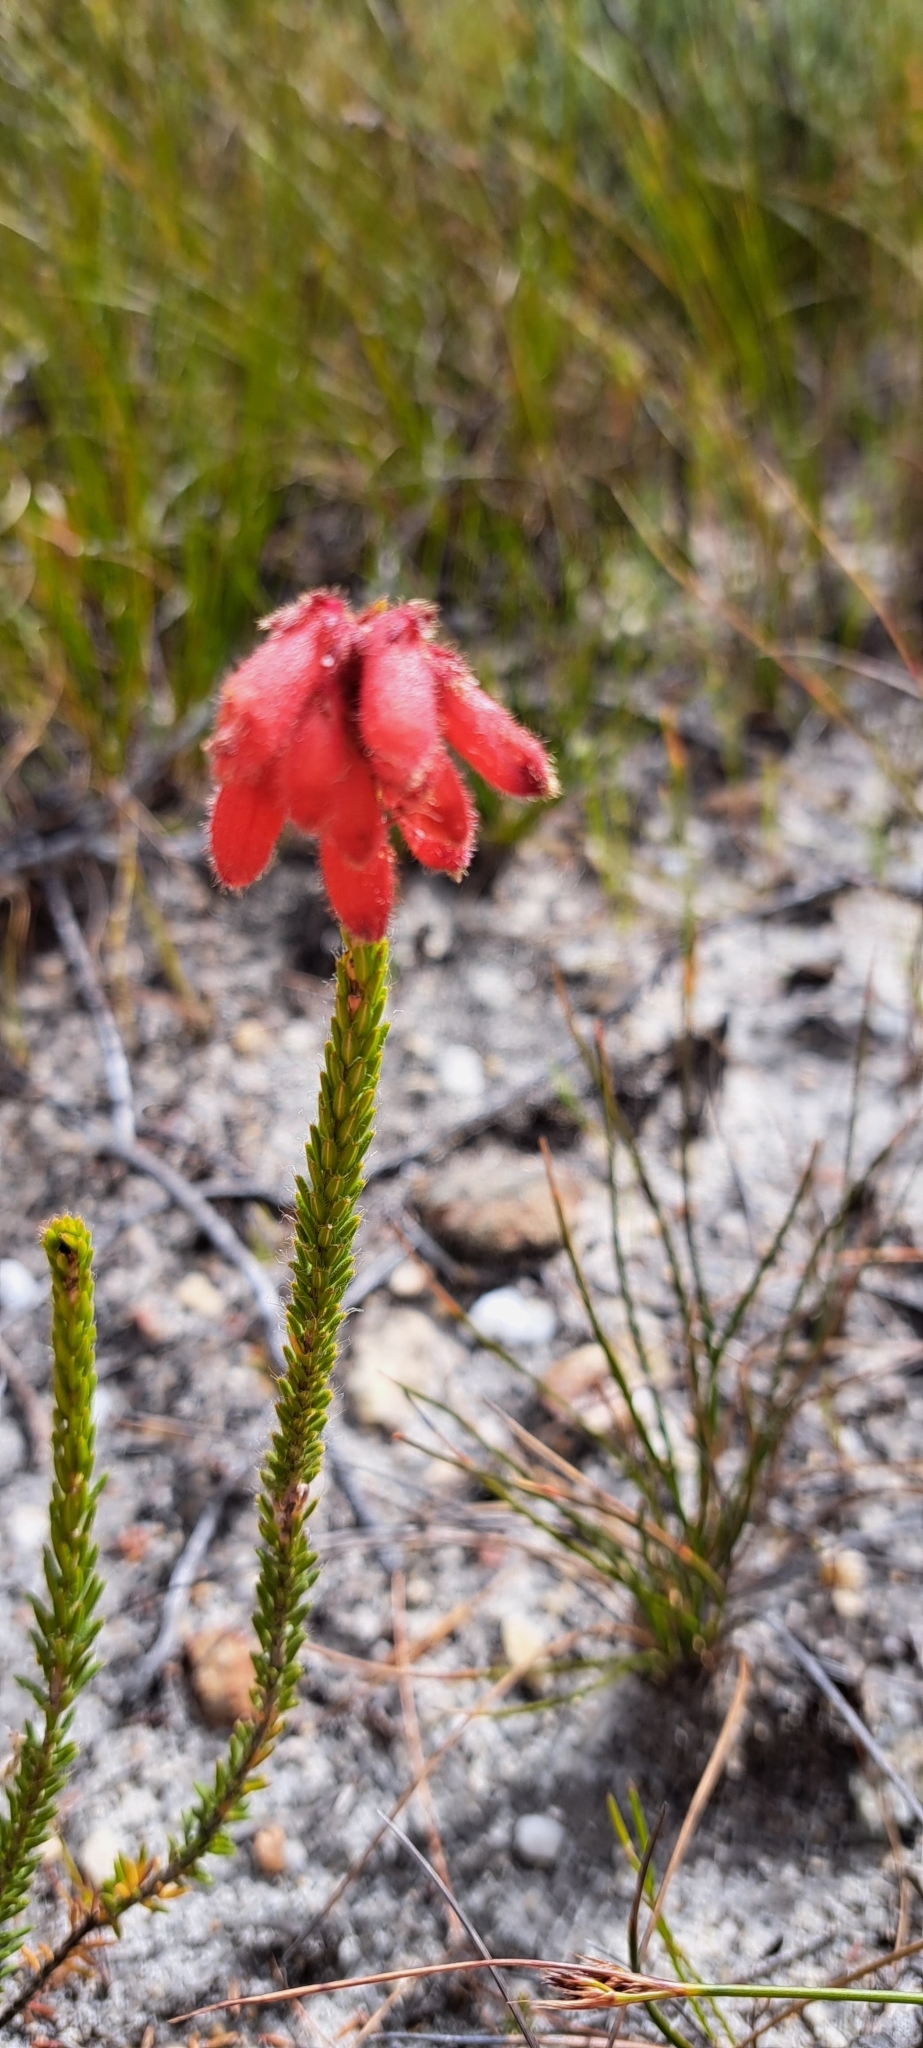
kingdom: Plantae
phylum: Tracheophyta
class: Magnoliopsida
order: Ericales
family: Ericaceae
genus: Erica
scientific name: Erica cerinthoides
